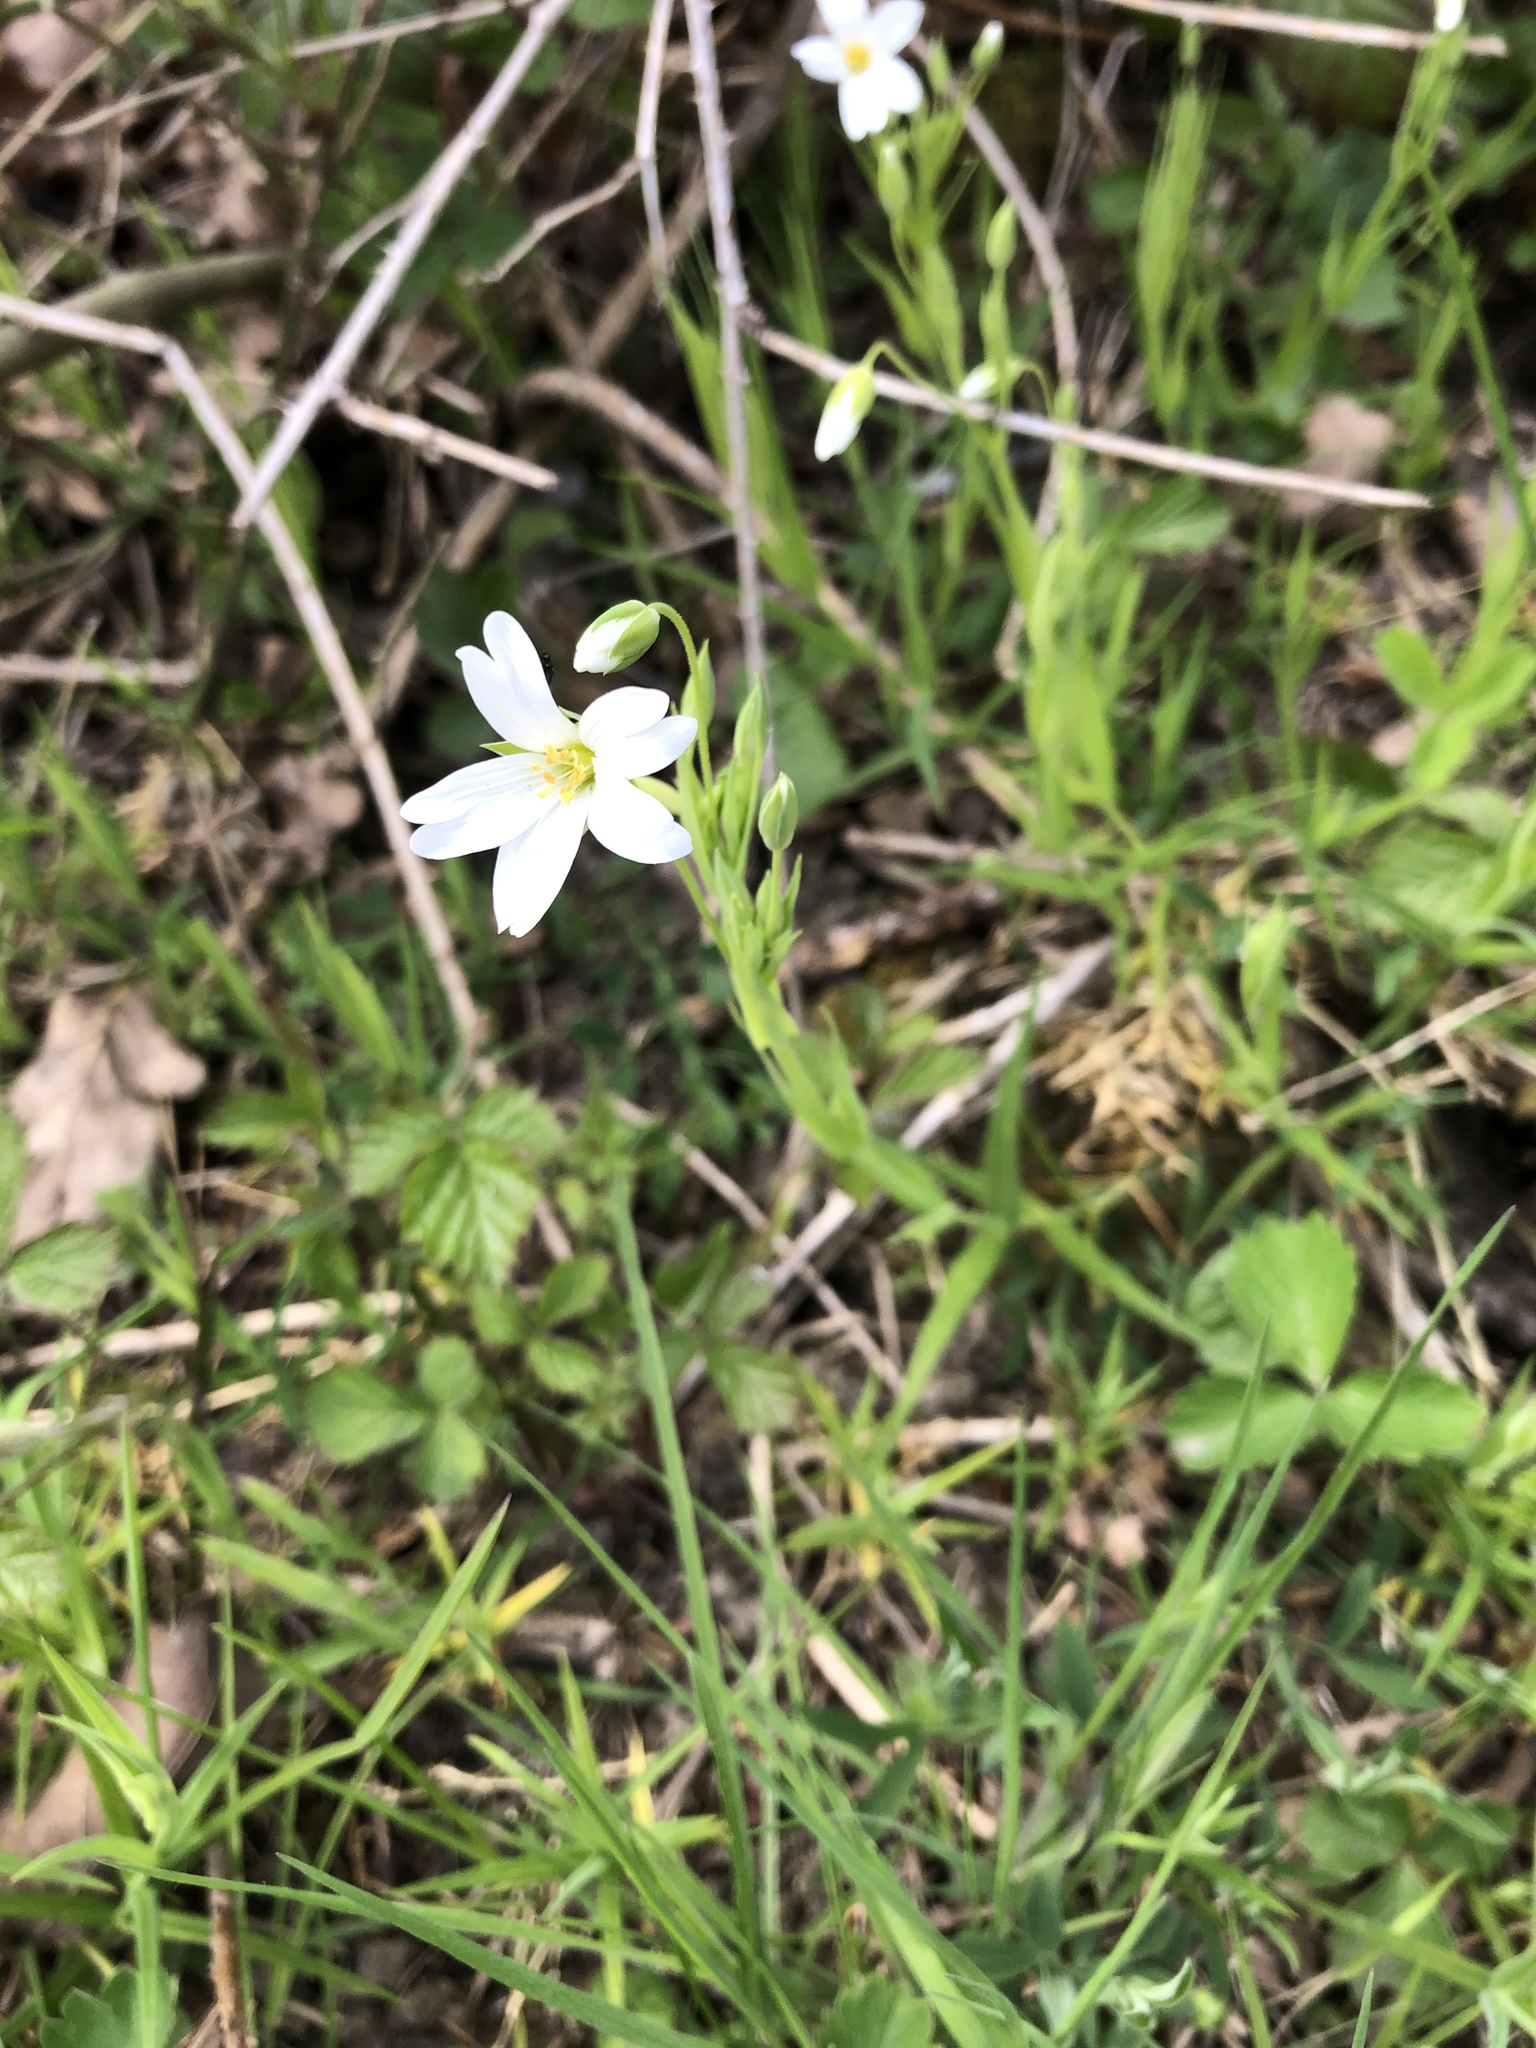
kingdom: Plantae
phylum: Tracheophyta
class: Magnoliopsida
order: Caryophyllales
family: Caryophyllaceae
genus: Rabelera
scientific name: Rabelera holostea
